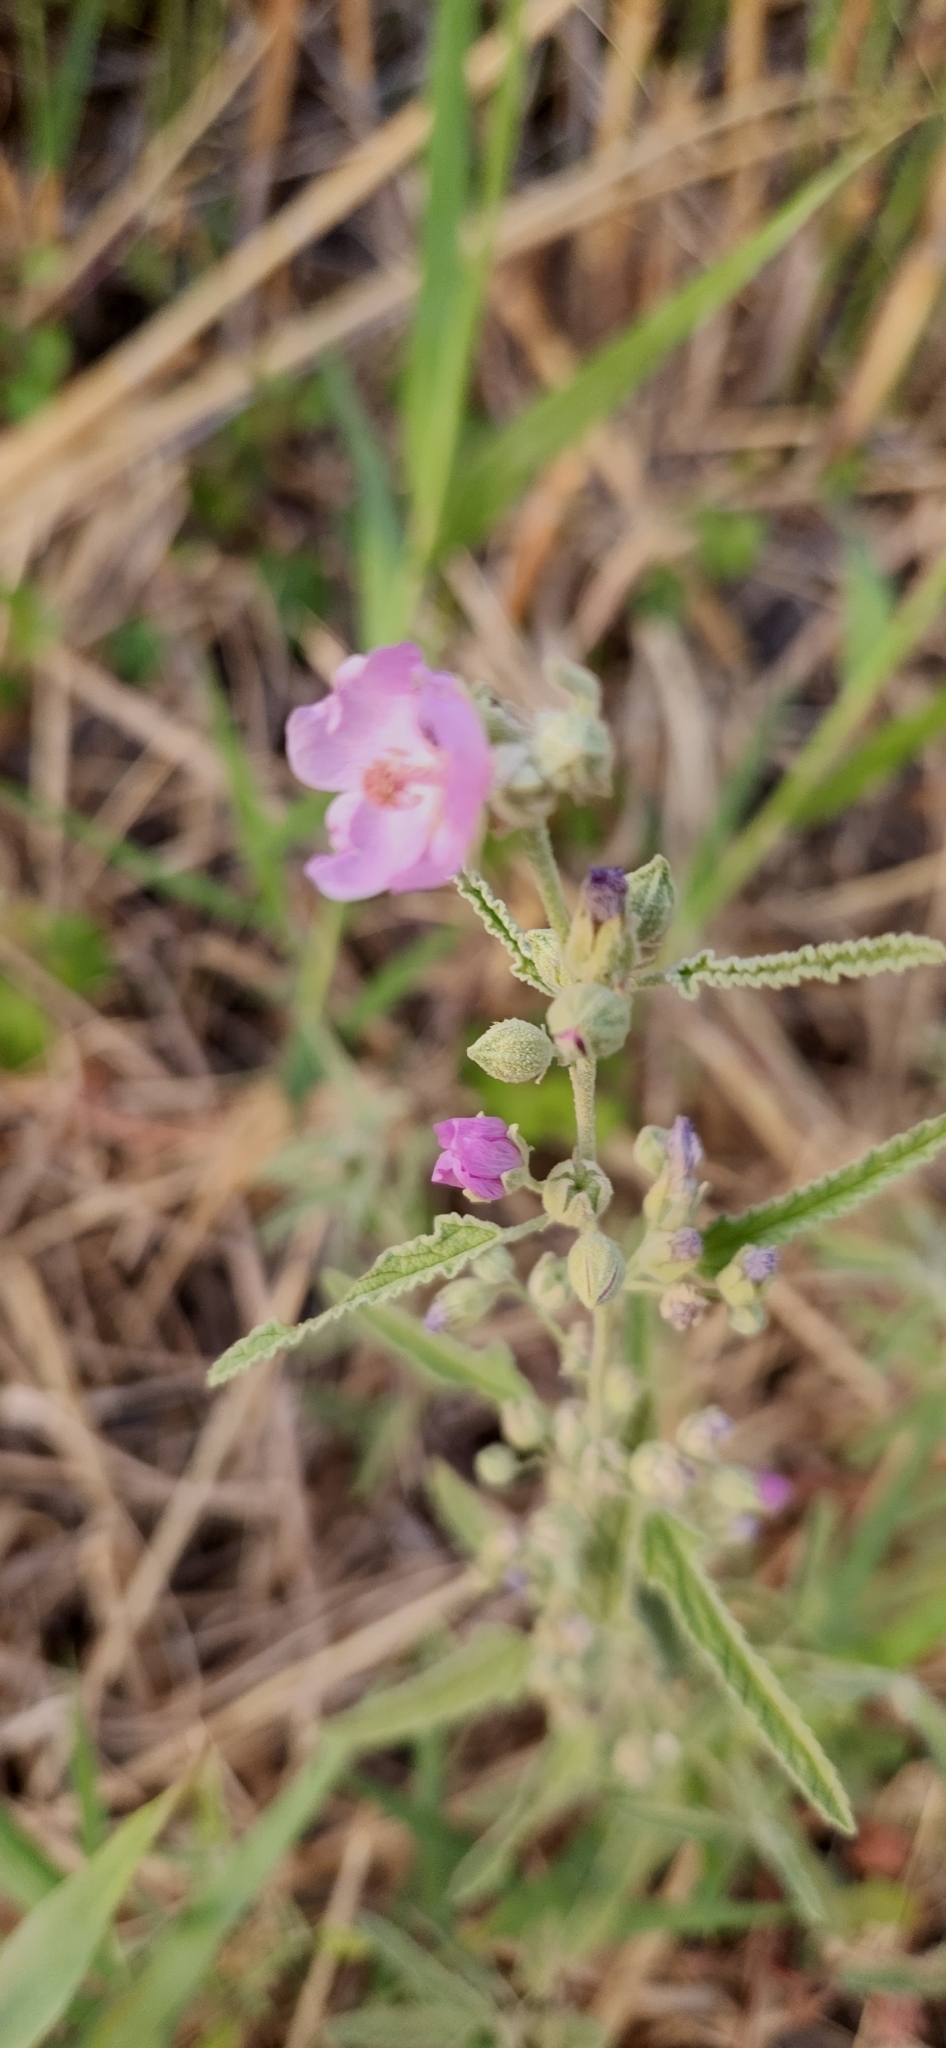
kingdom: Plantae
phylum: Tracheophyta
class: Magnoliopsida
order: Malvales
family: Malvaceae
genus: Sphaeralcea
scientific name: Sphaeralcea angustifolia
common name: Copper globe-mallow
